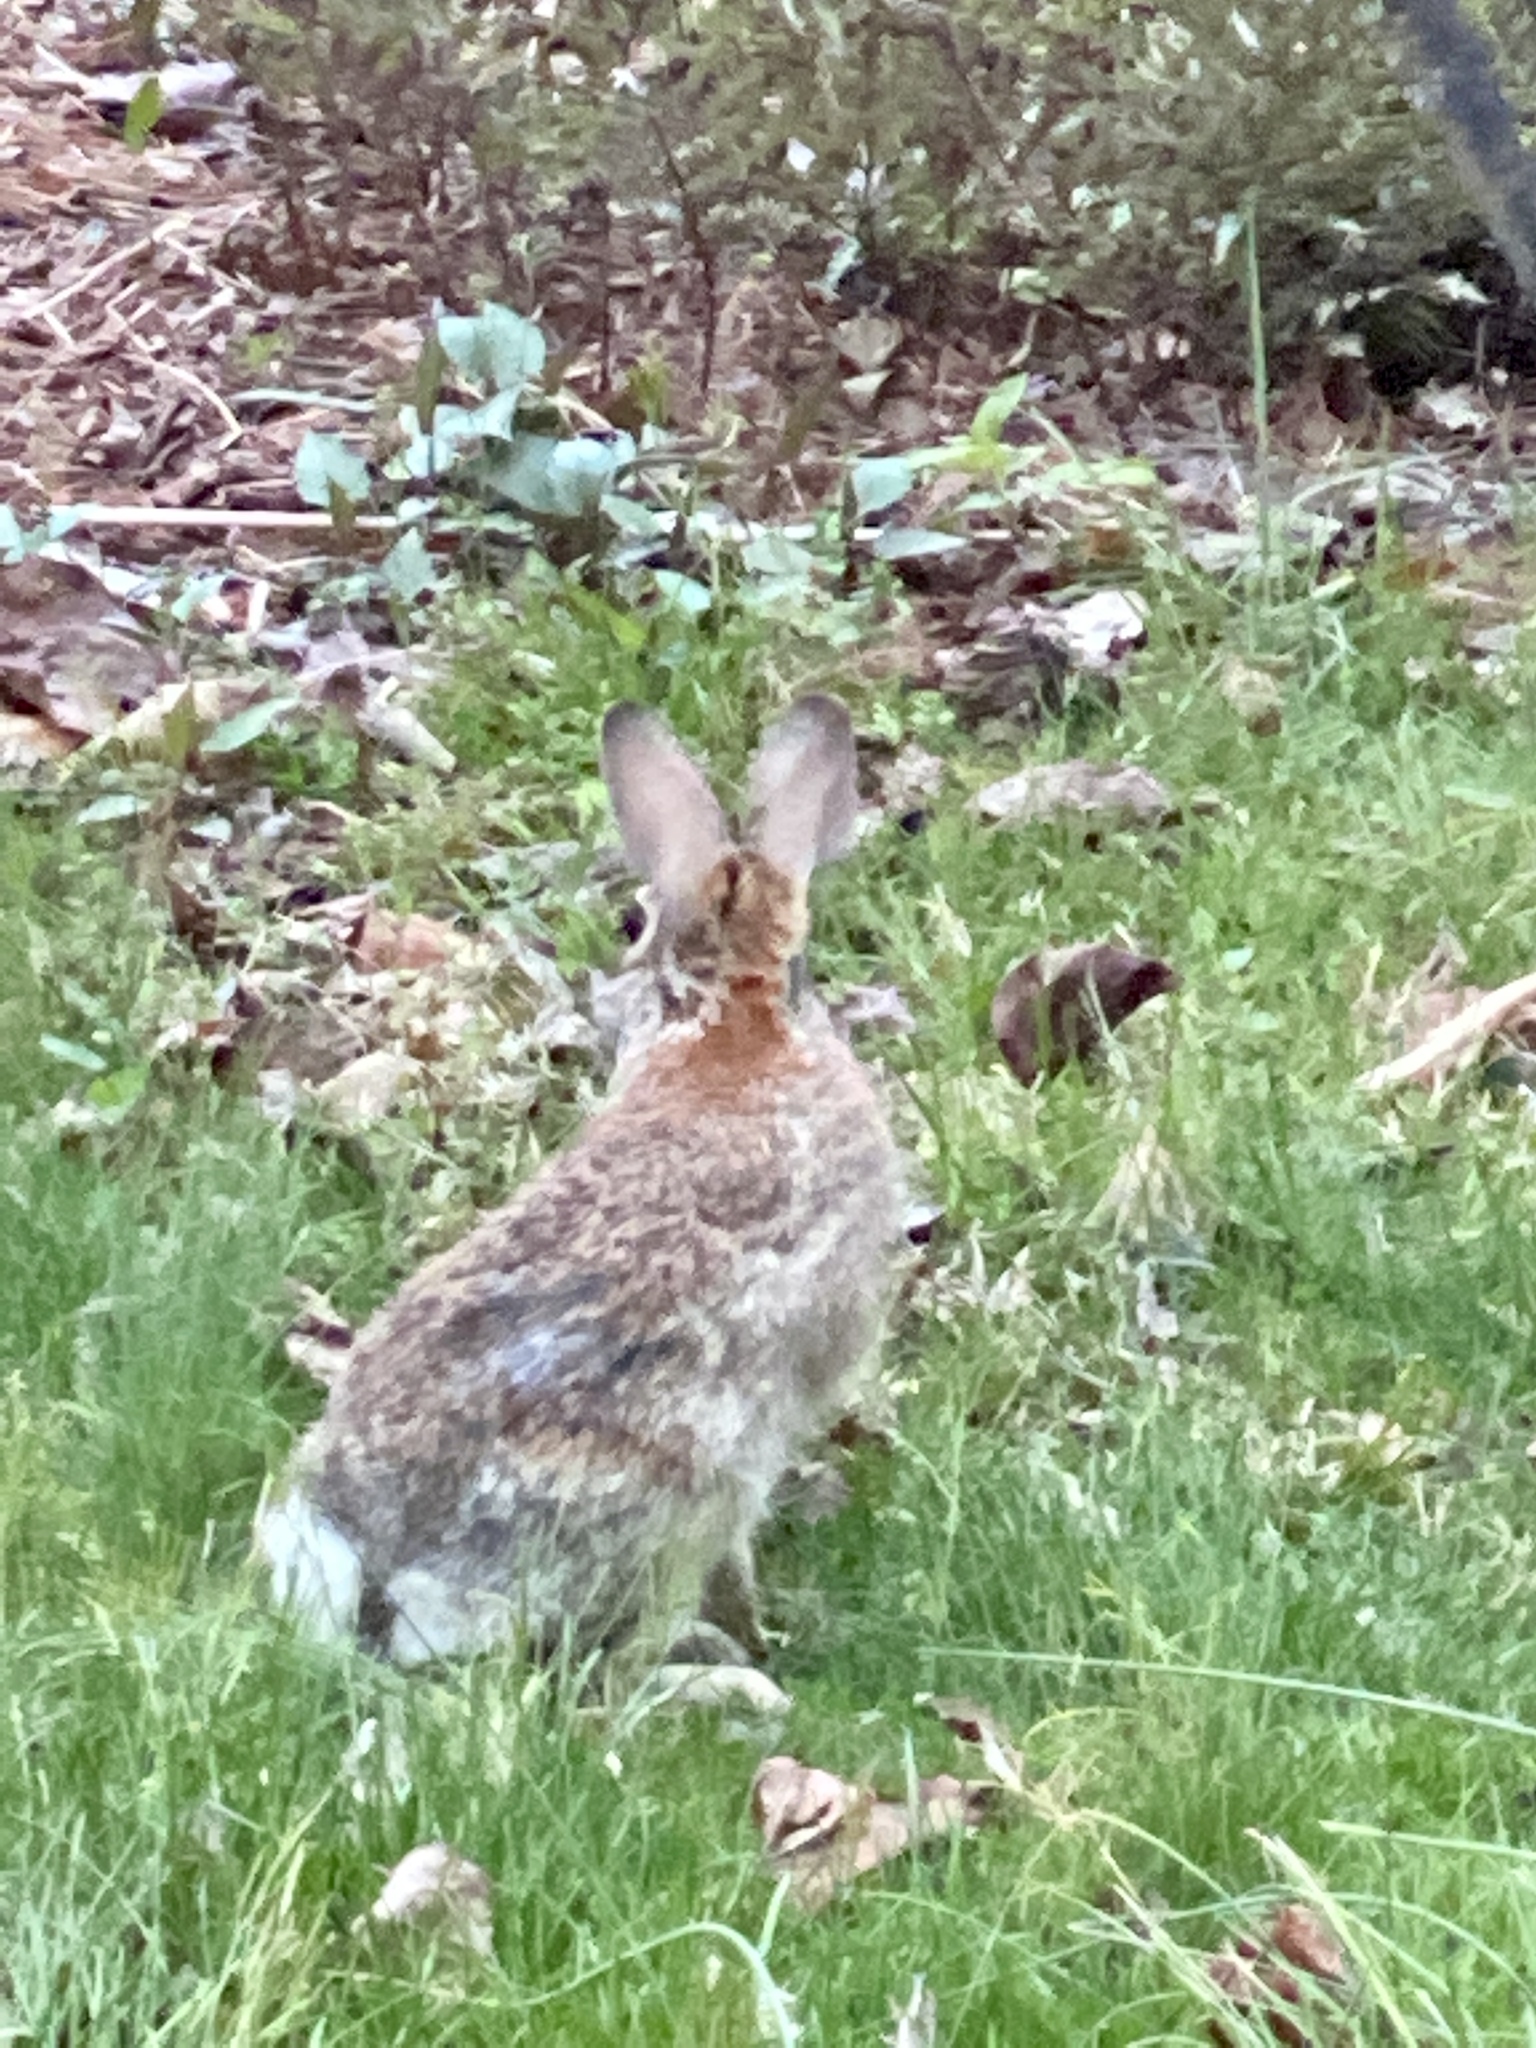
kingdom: Animalia
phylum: Chordata
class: Mammalia
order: Lagomorpha
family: Leporidae
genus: Sylvilagus
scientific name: Sylvilagus floridanus
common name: Eastern cottontail
